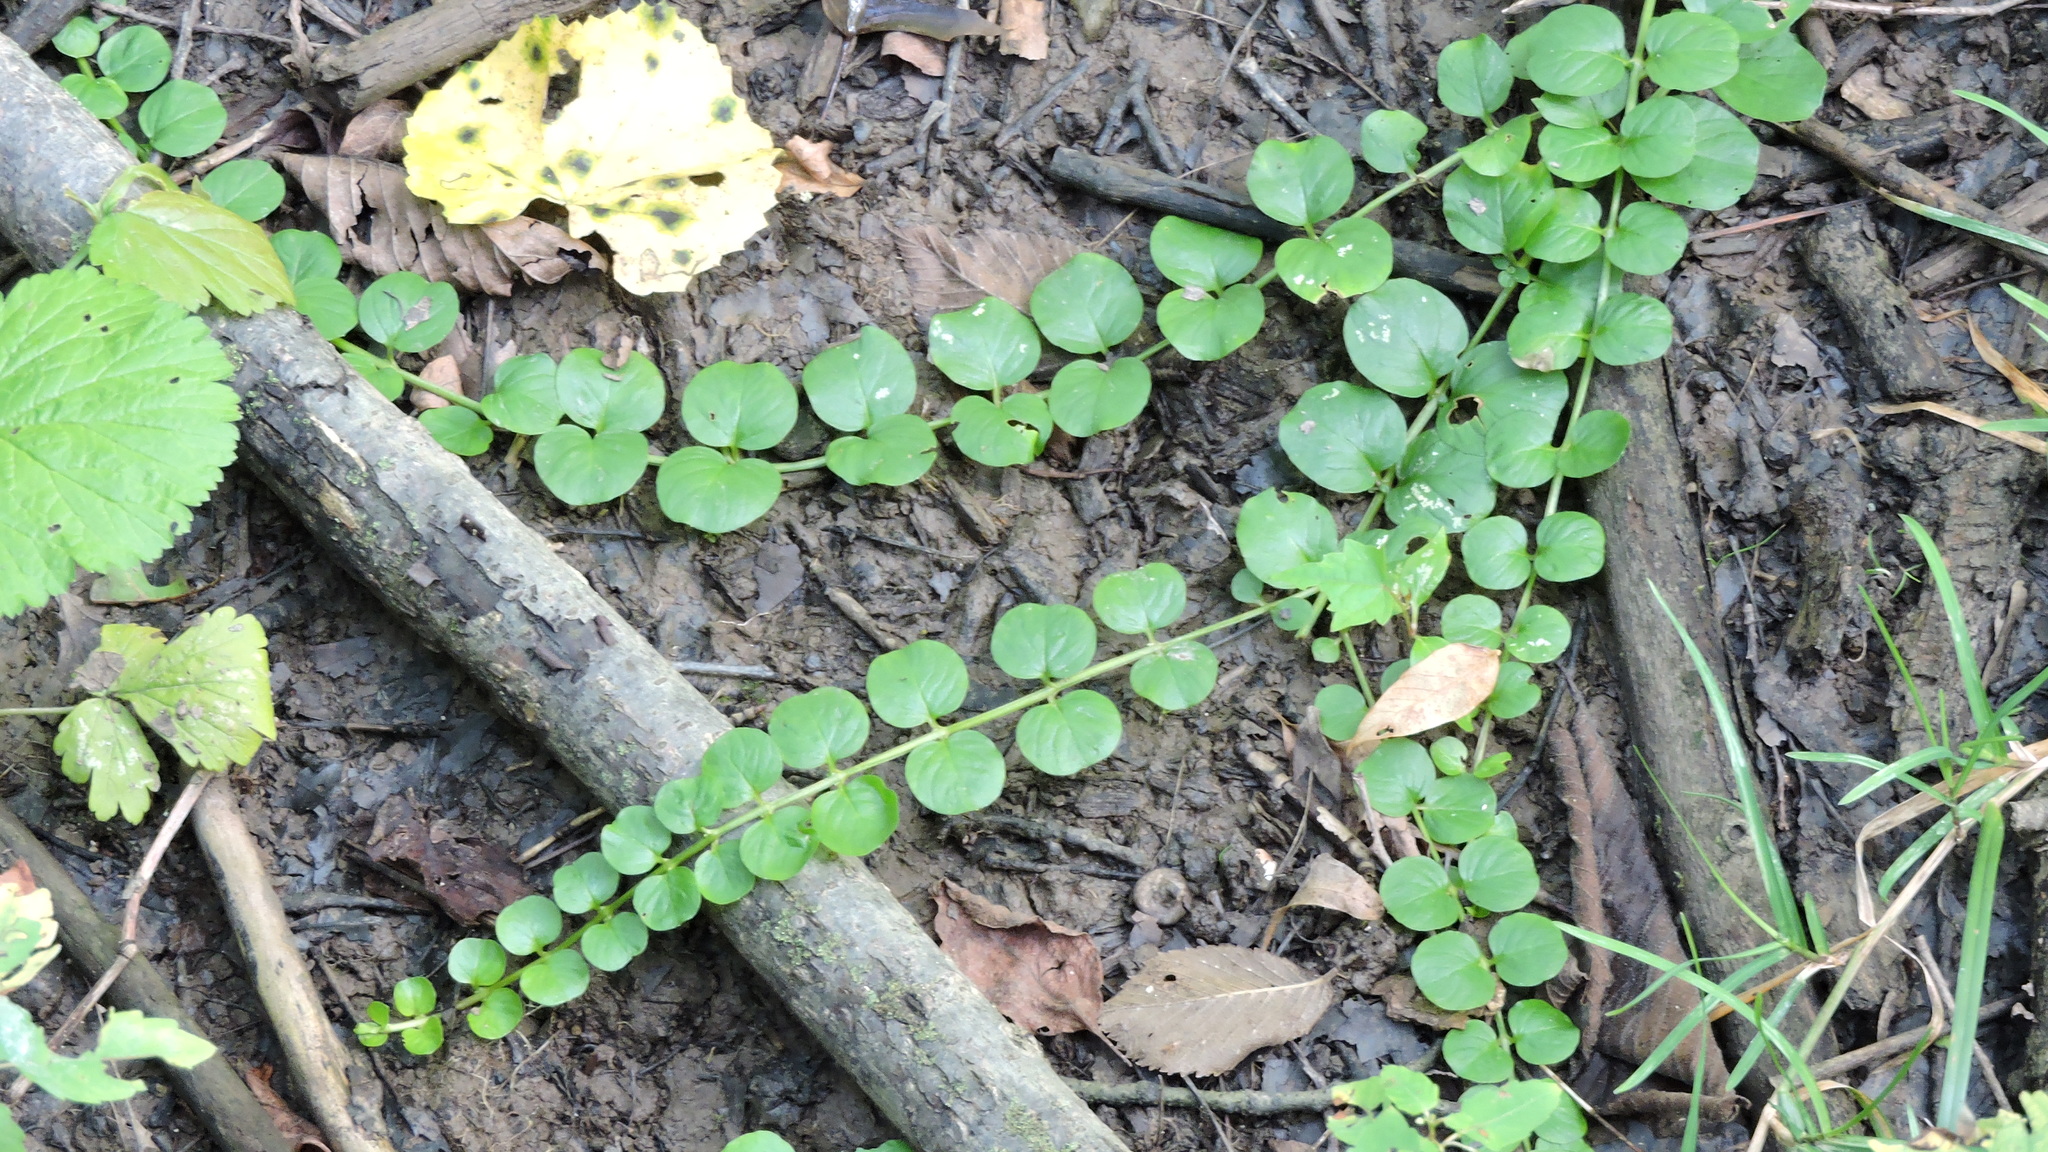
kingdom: Plantae
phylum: Tracheophyta
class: Magnoliopsida
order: Ericales
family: Primulaceae
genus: Lysimachia
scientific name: Lysimachia nummularia
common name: Moneywort
